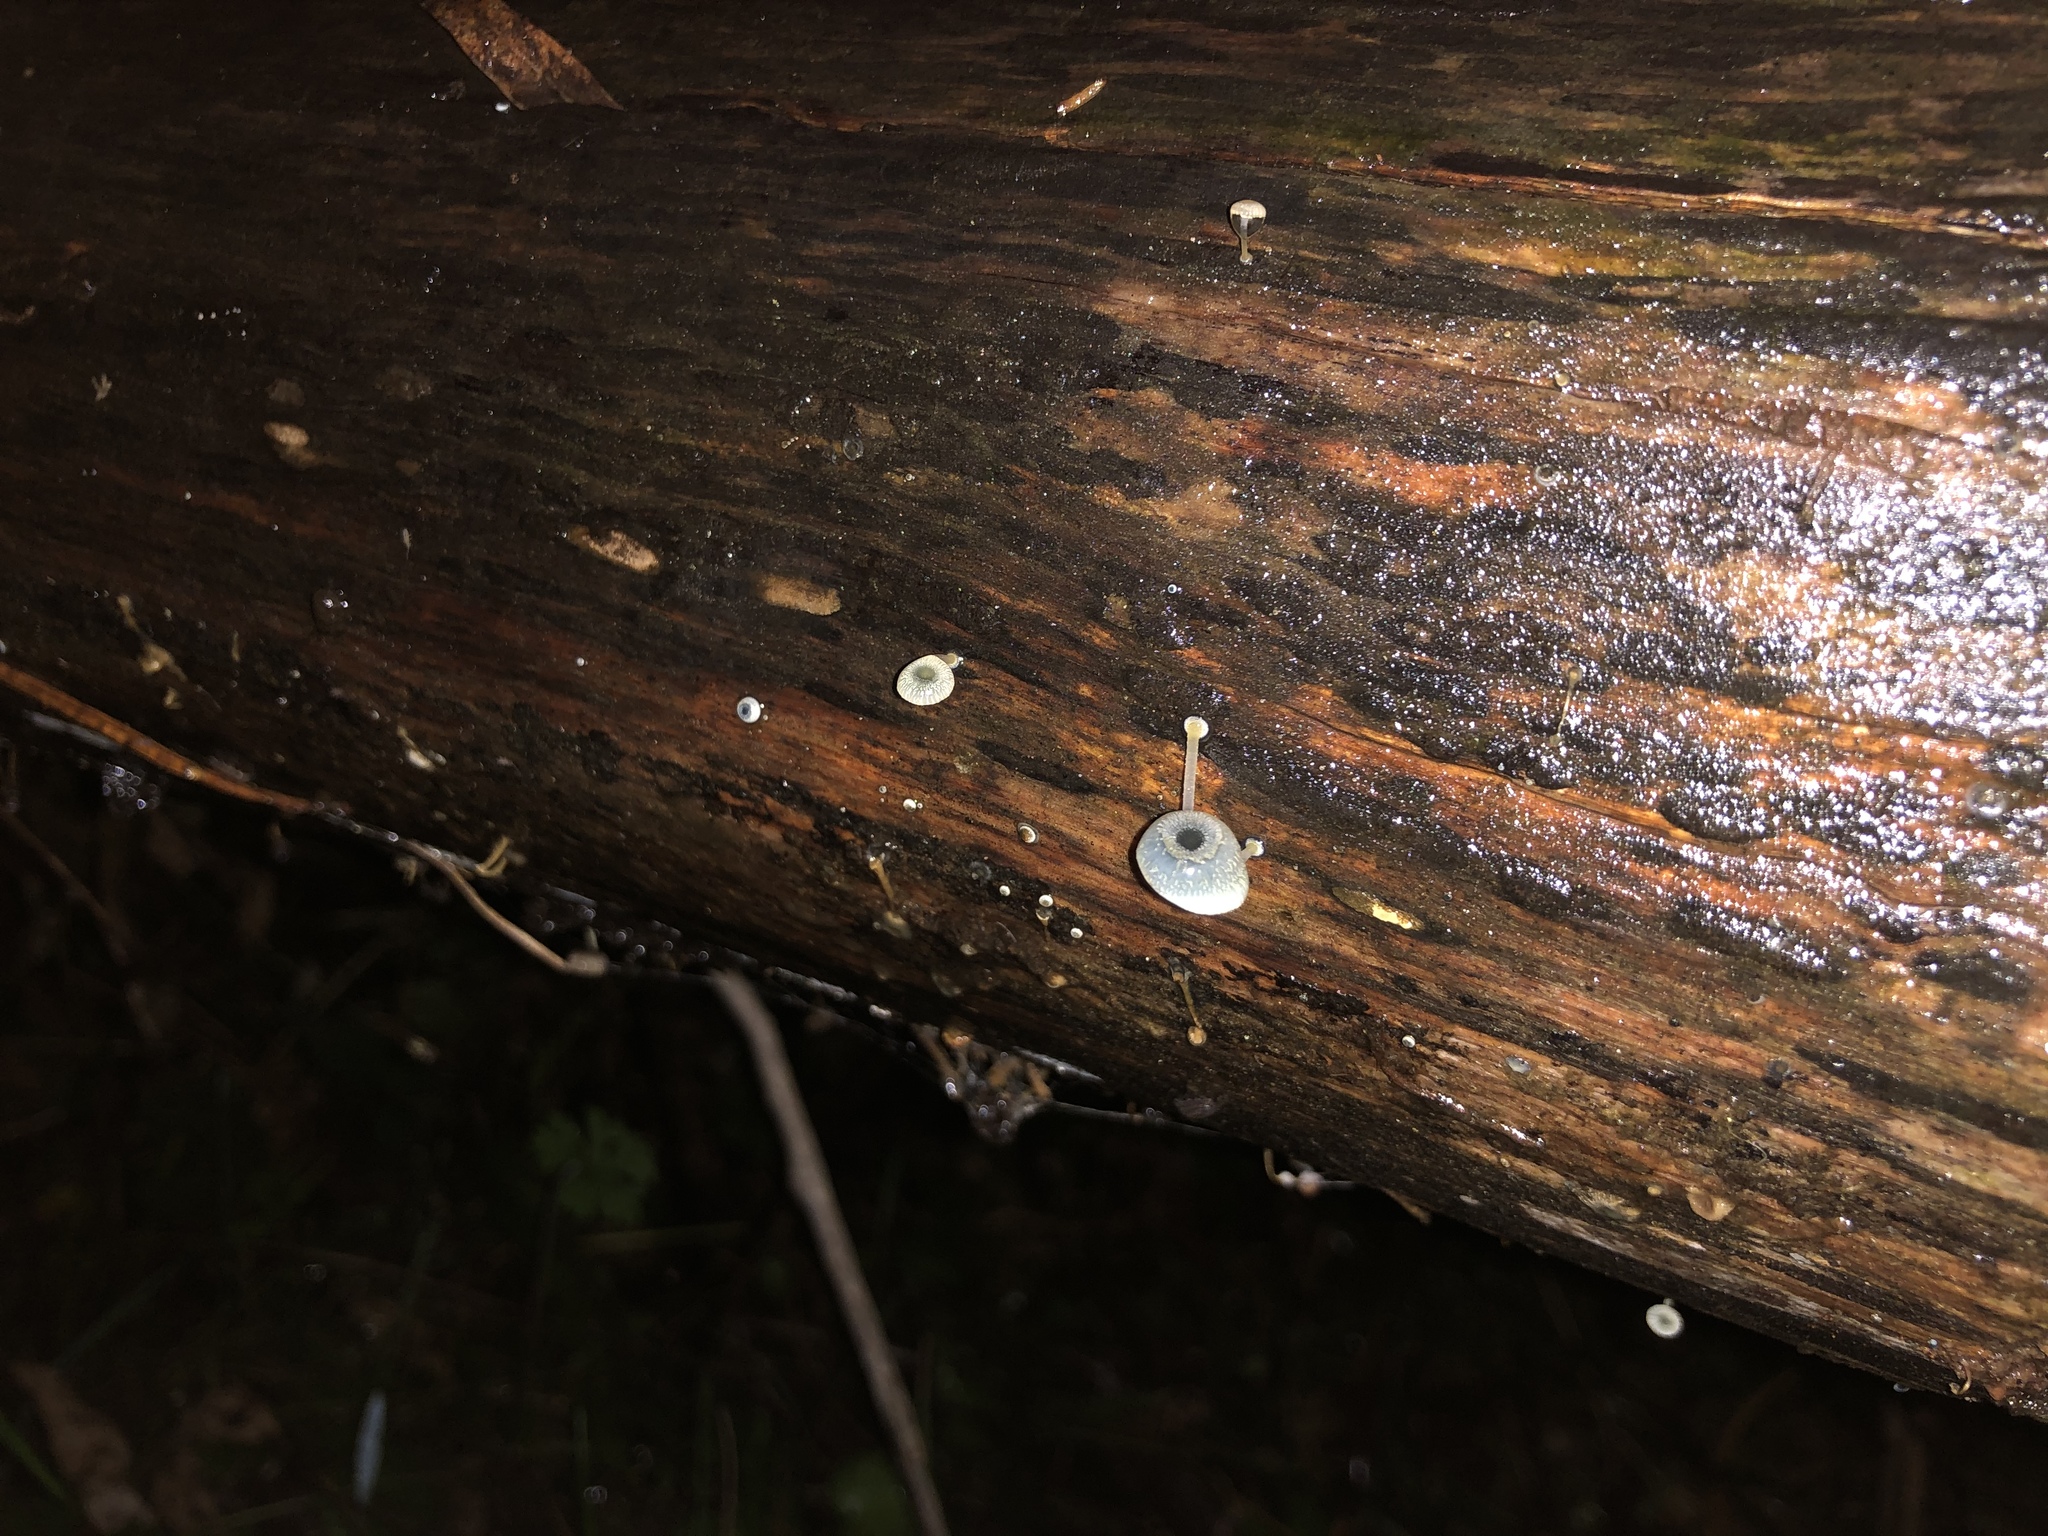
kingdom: Fungi
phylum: Basidiomycota
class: Agaricomycetes
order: Agaricales
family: Mycenaceae
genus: Mycena
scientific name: Mycena interrupta
